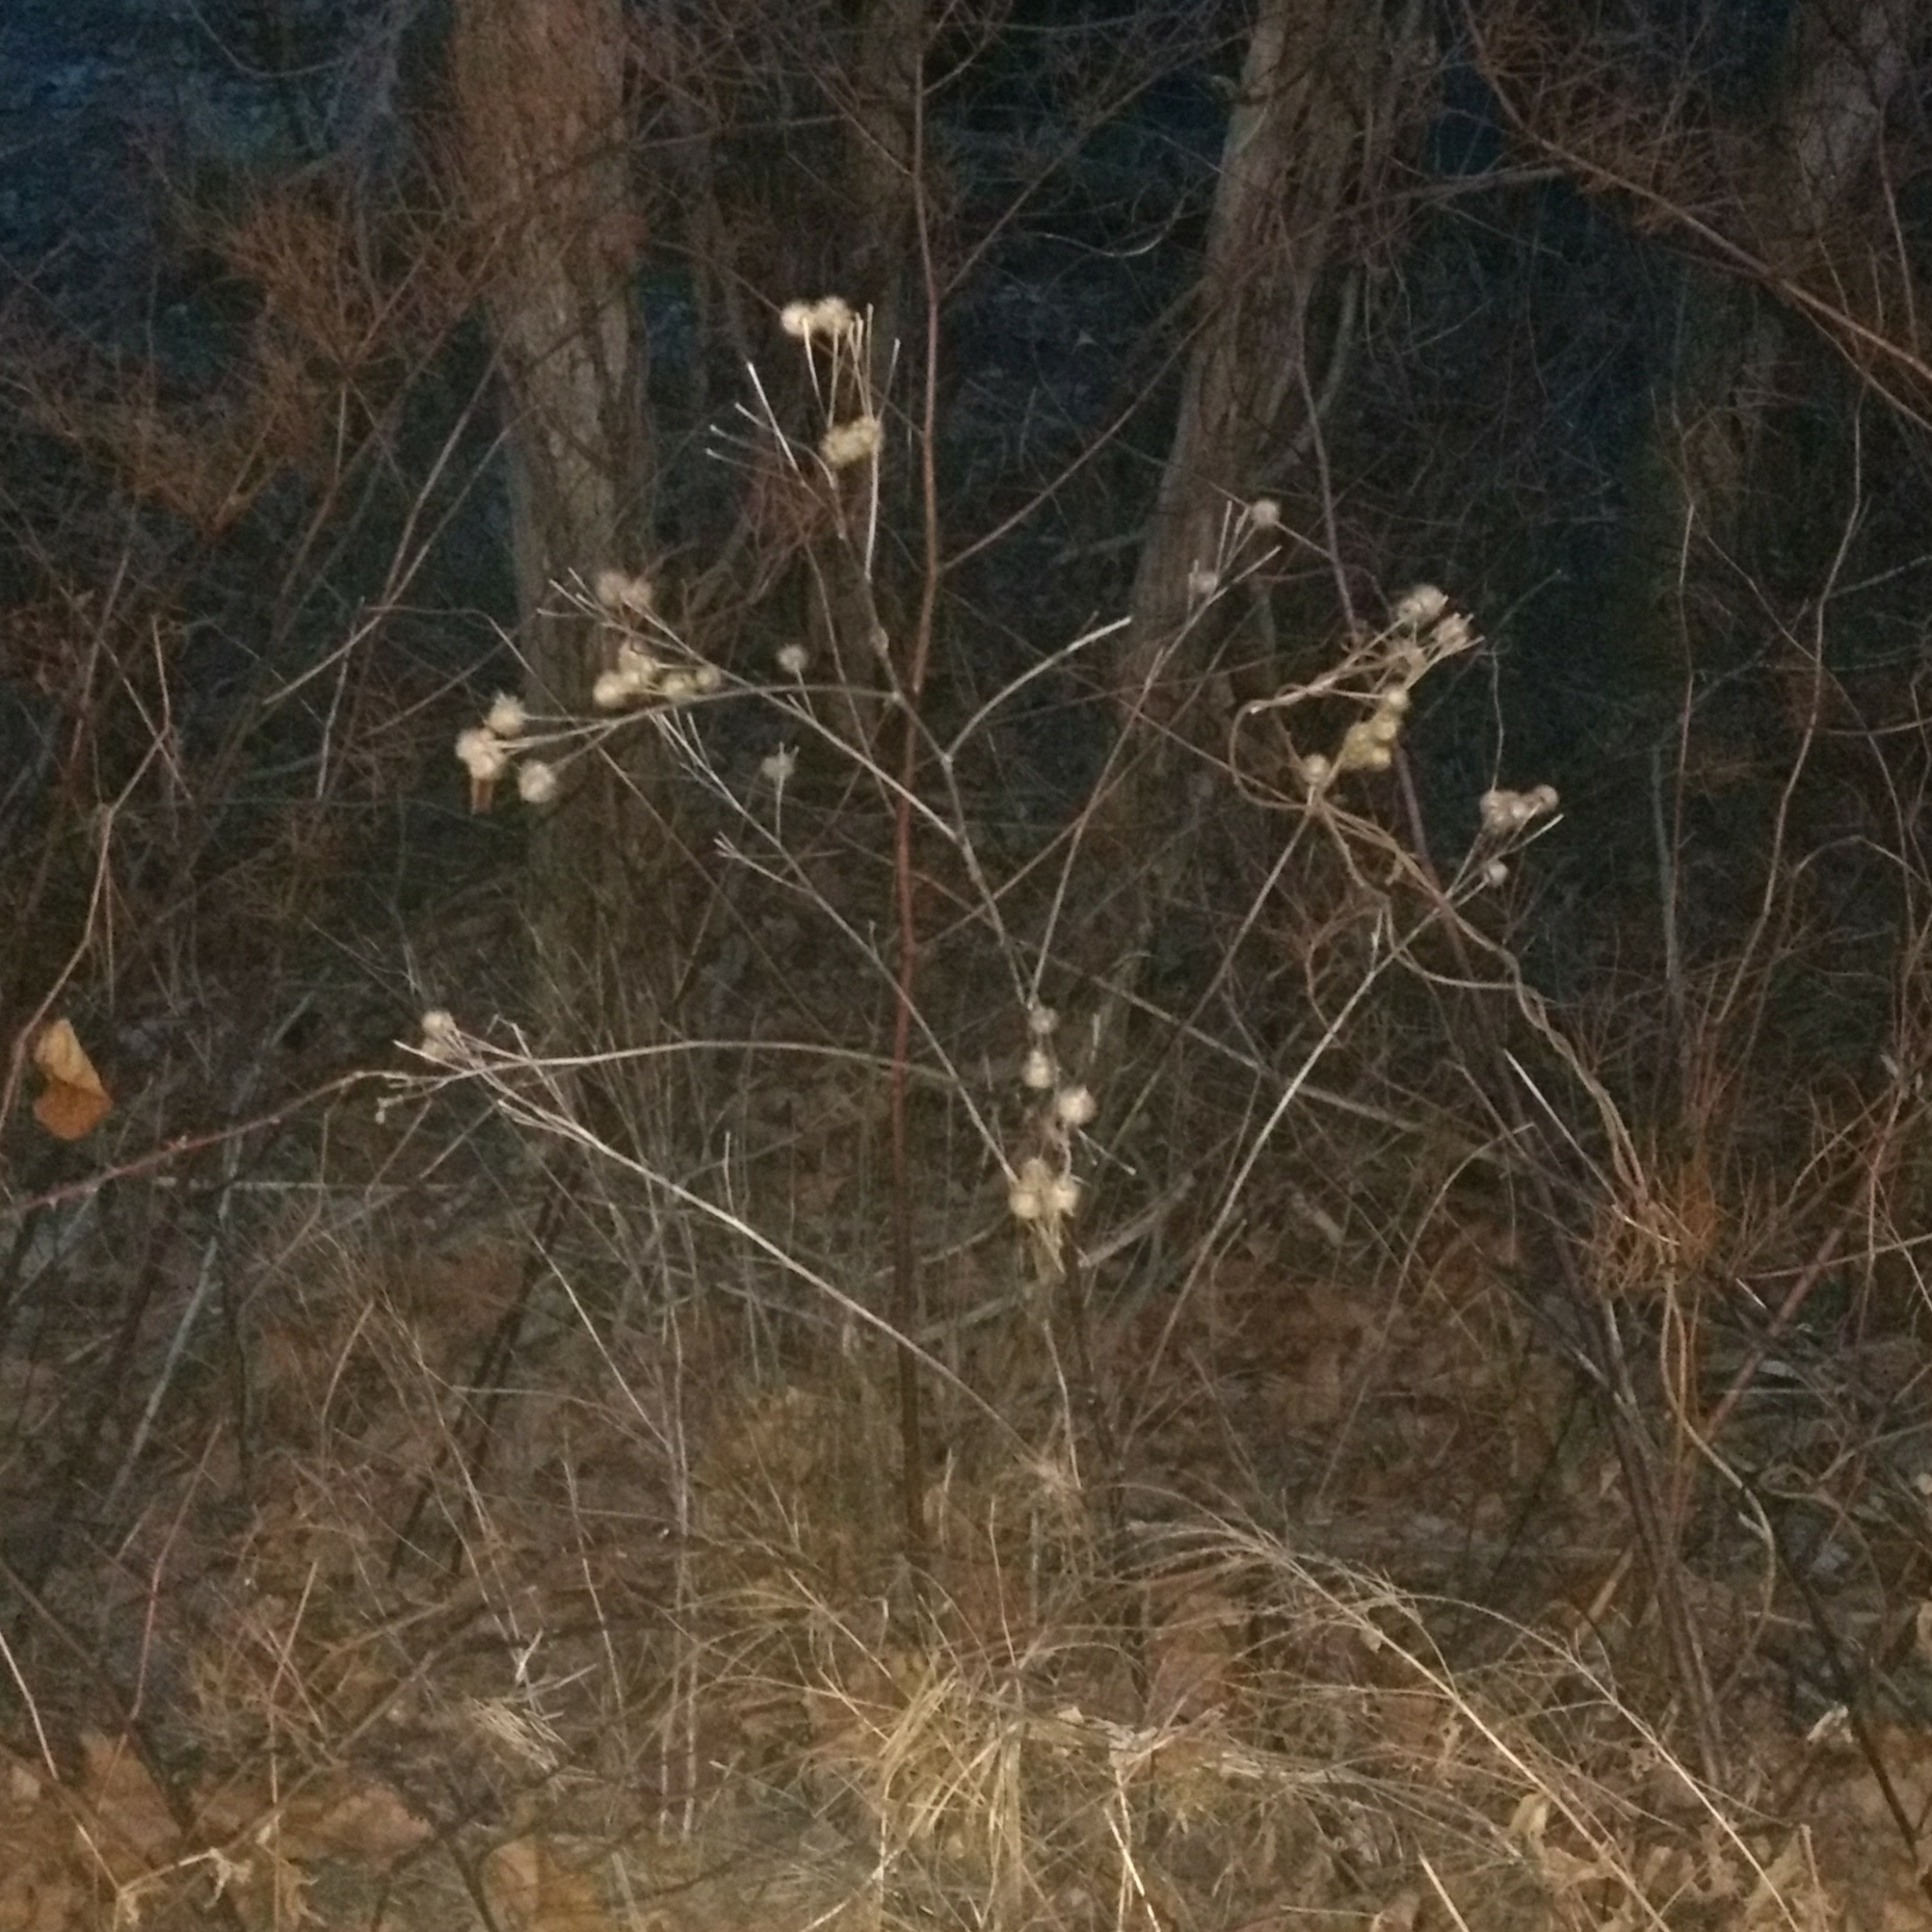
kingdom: Plantae
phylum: Tracheophyta
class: Magnoliopsida
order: Asterales
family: Asteraceae
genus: Arctium
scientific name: Arctium lappa
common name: Greater burdock
